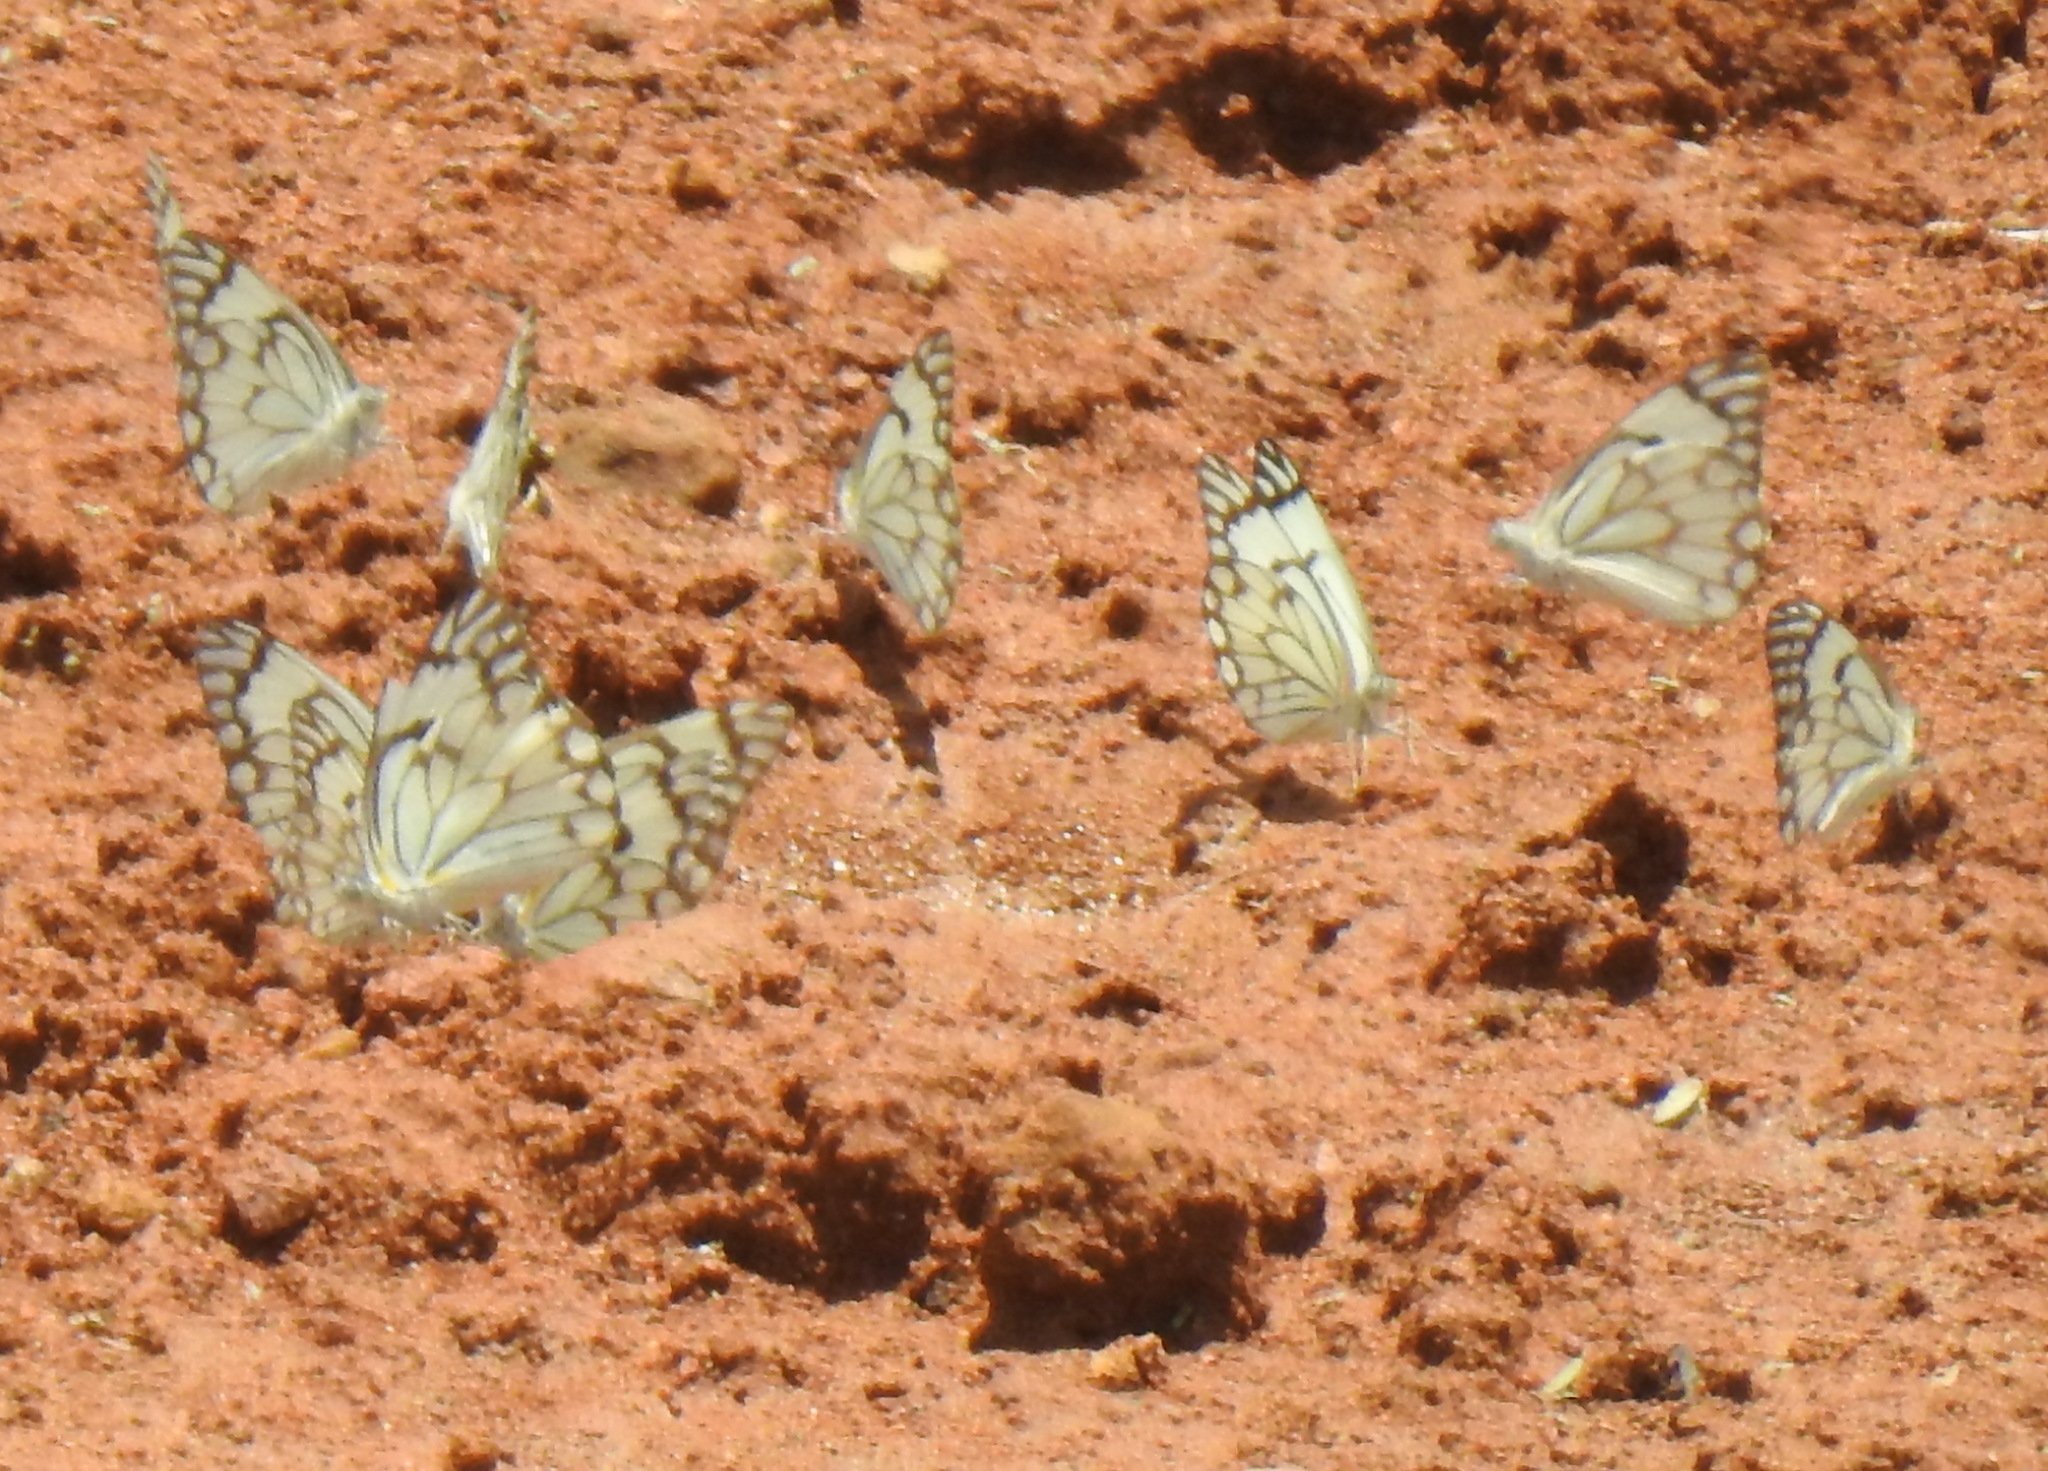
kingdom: Animalia
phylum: Arthropoda
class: Insecta
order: Lepidoptera
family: Pieridae
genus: Belenois
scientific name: Belenois aurota
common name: Brown-veined white
